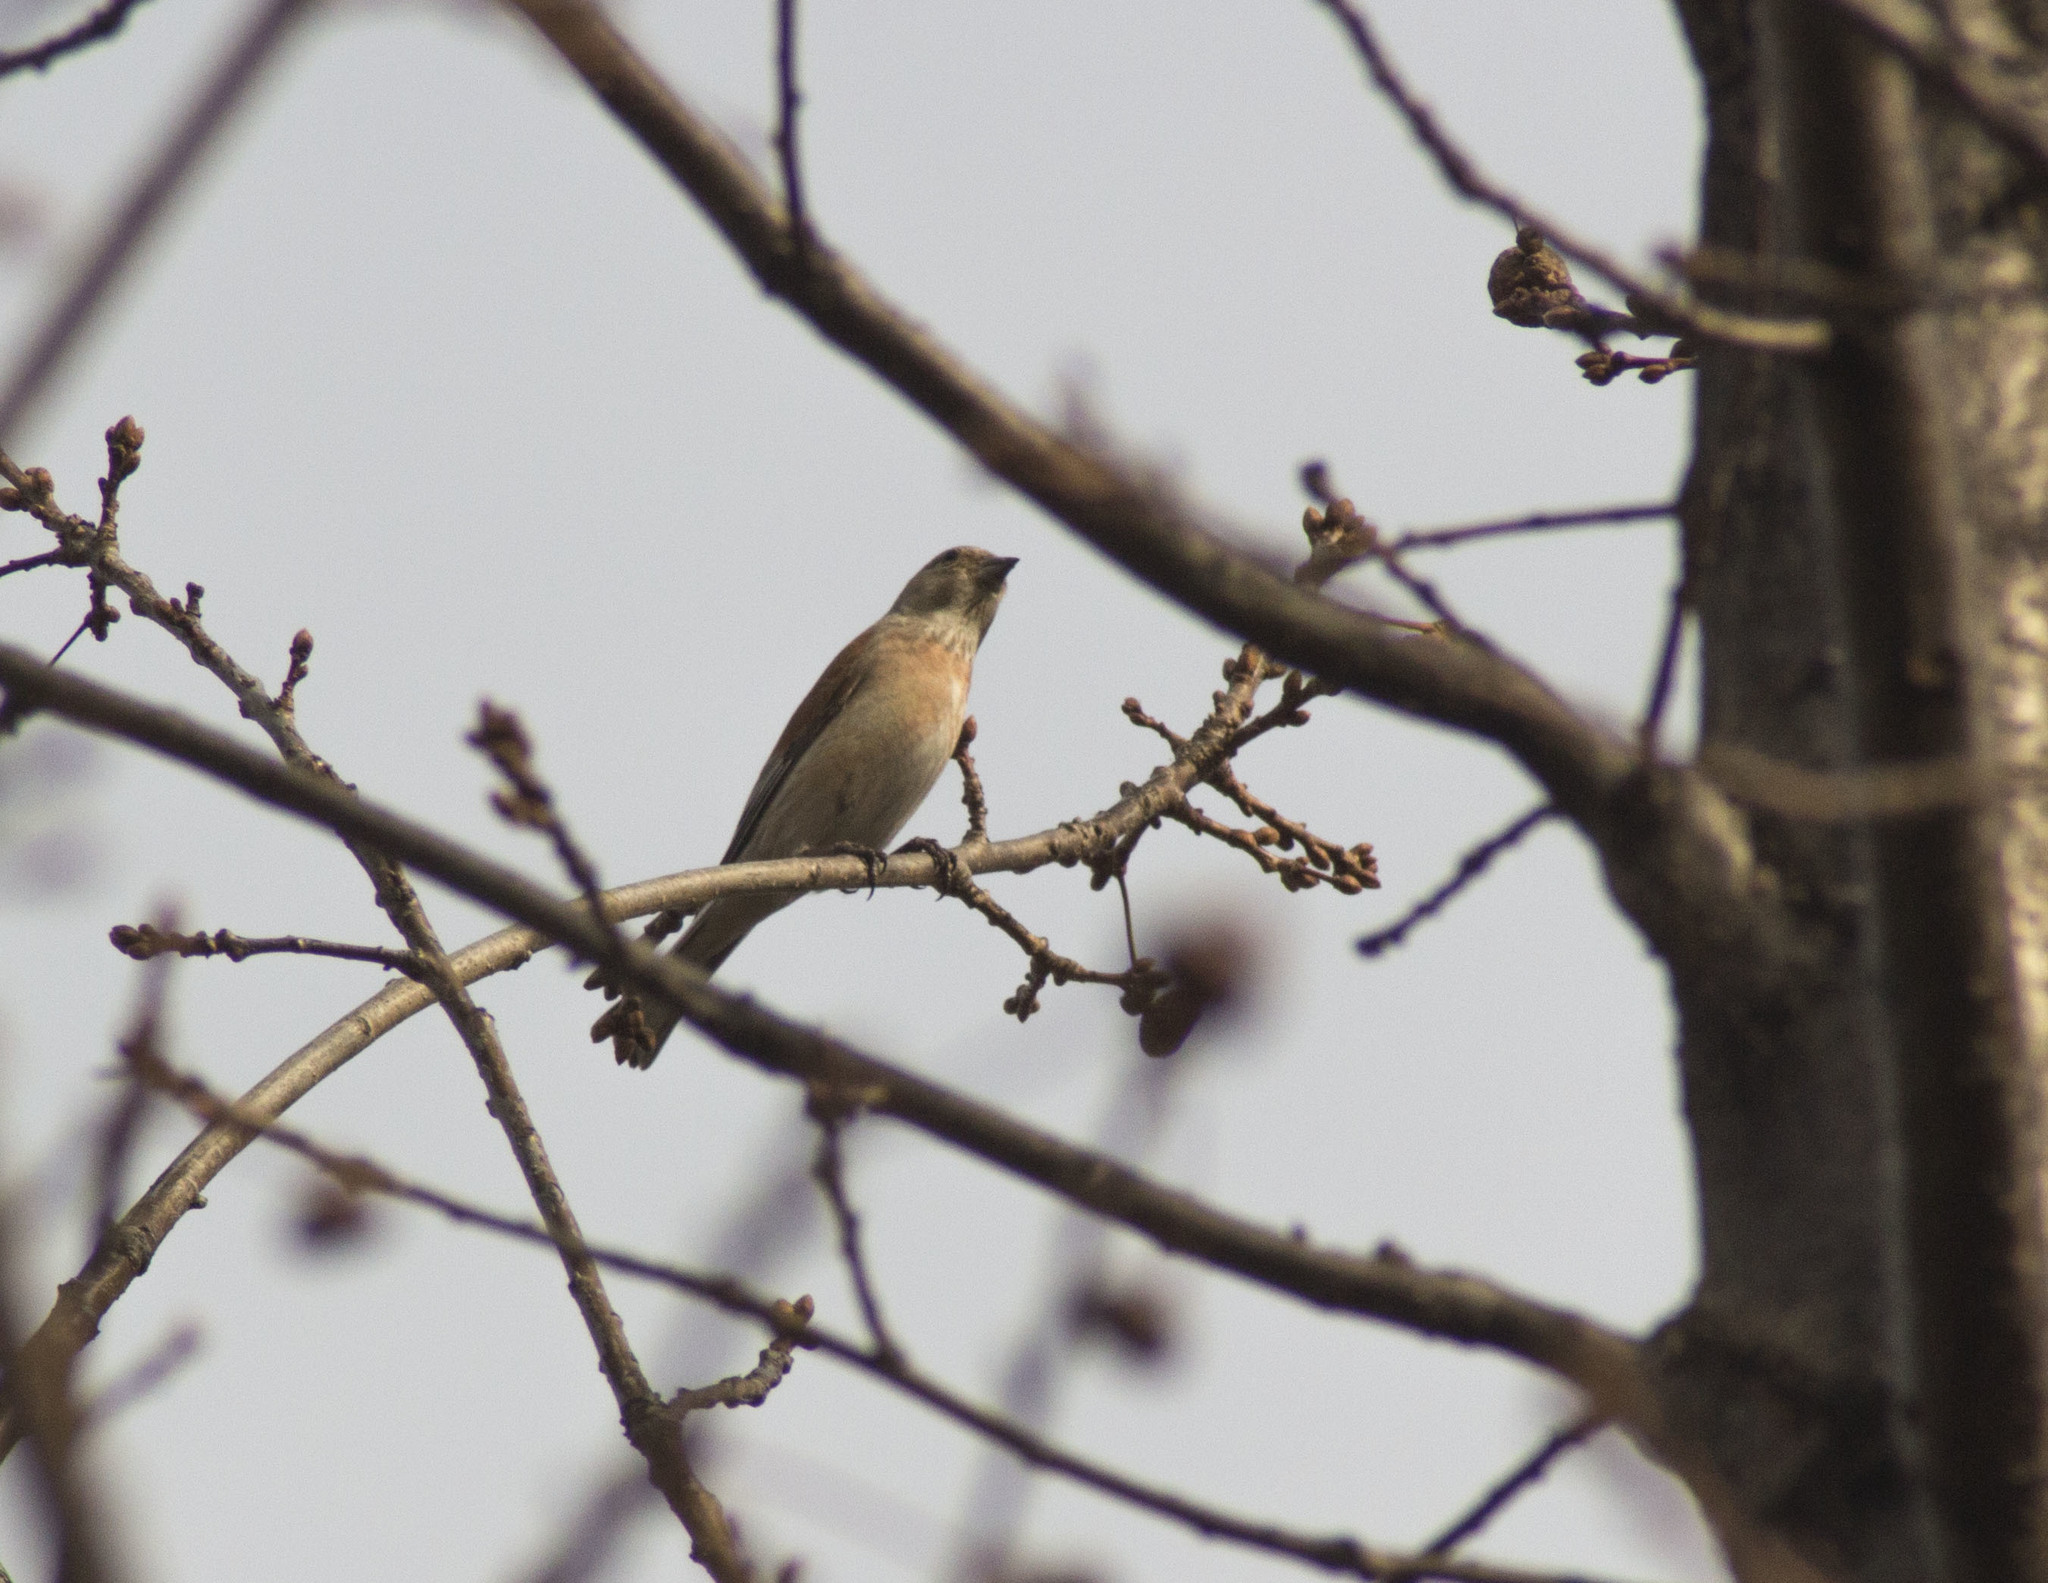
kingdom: Animalia
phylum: Chordata
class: Aves
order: Passeriformes
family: Fringillidae
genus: Linaria
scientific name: Linaria cannabina
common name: Common linnet
